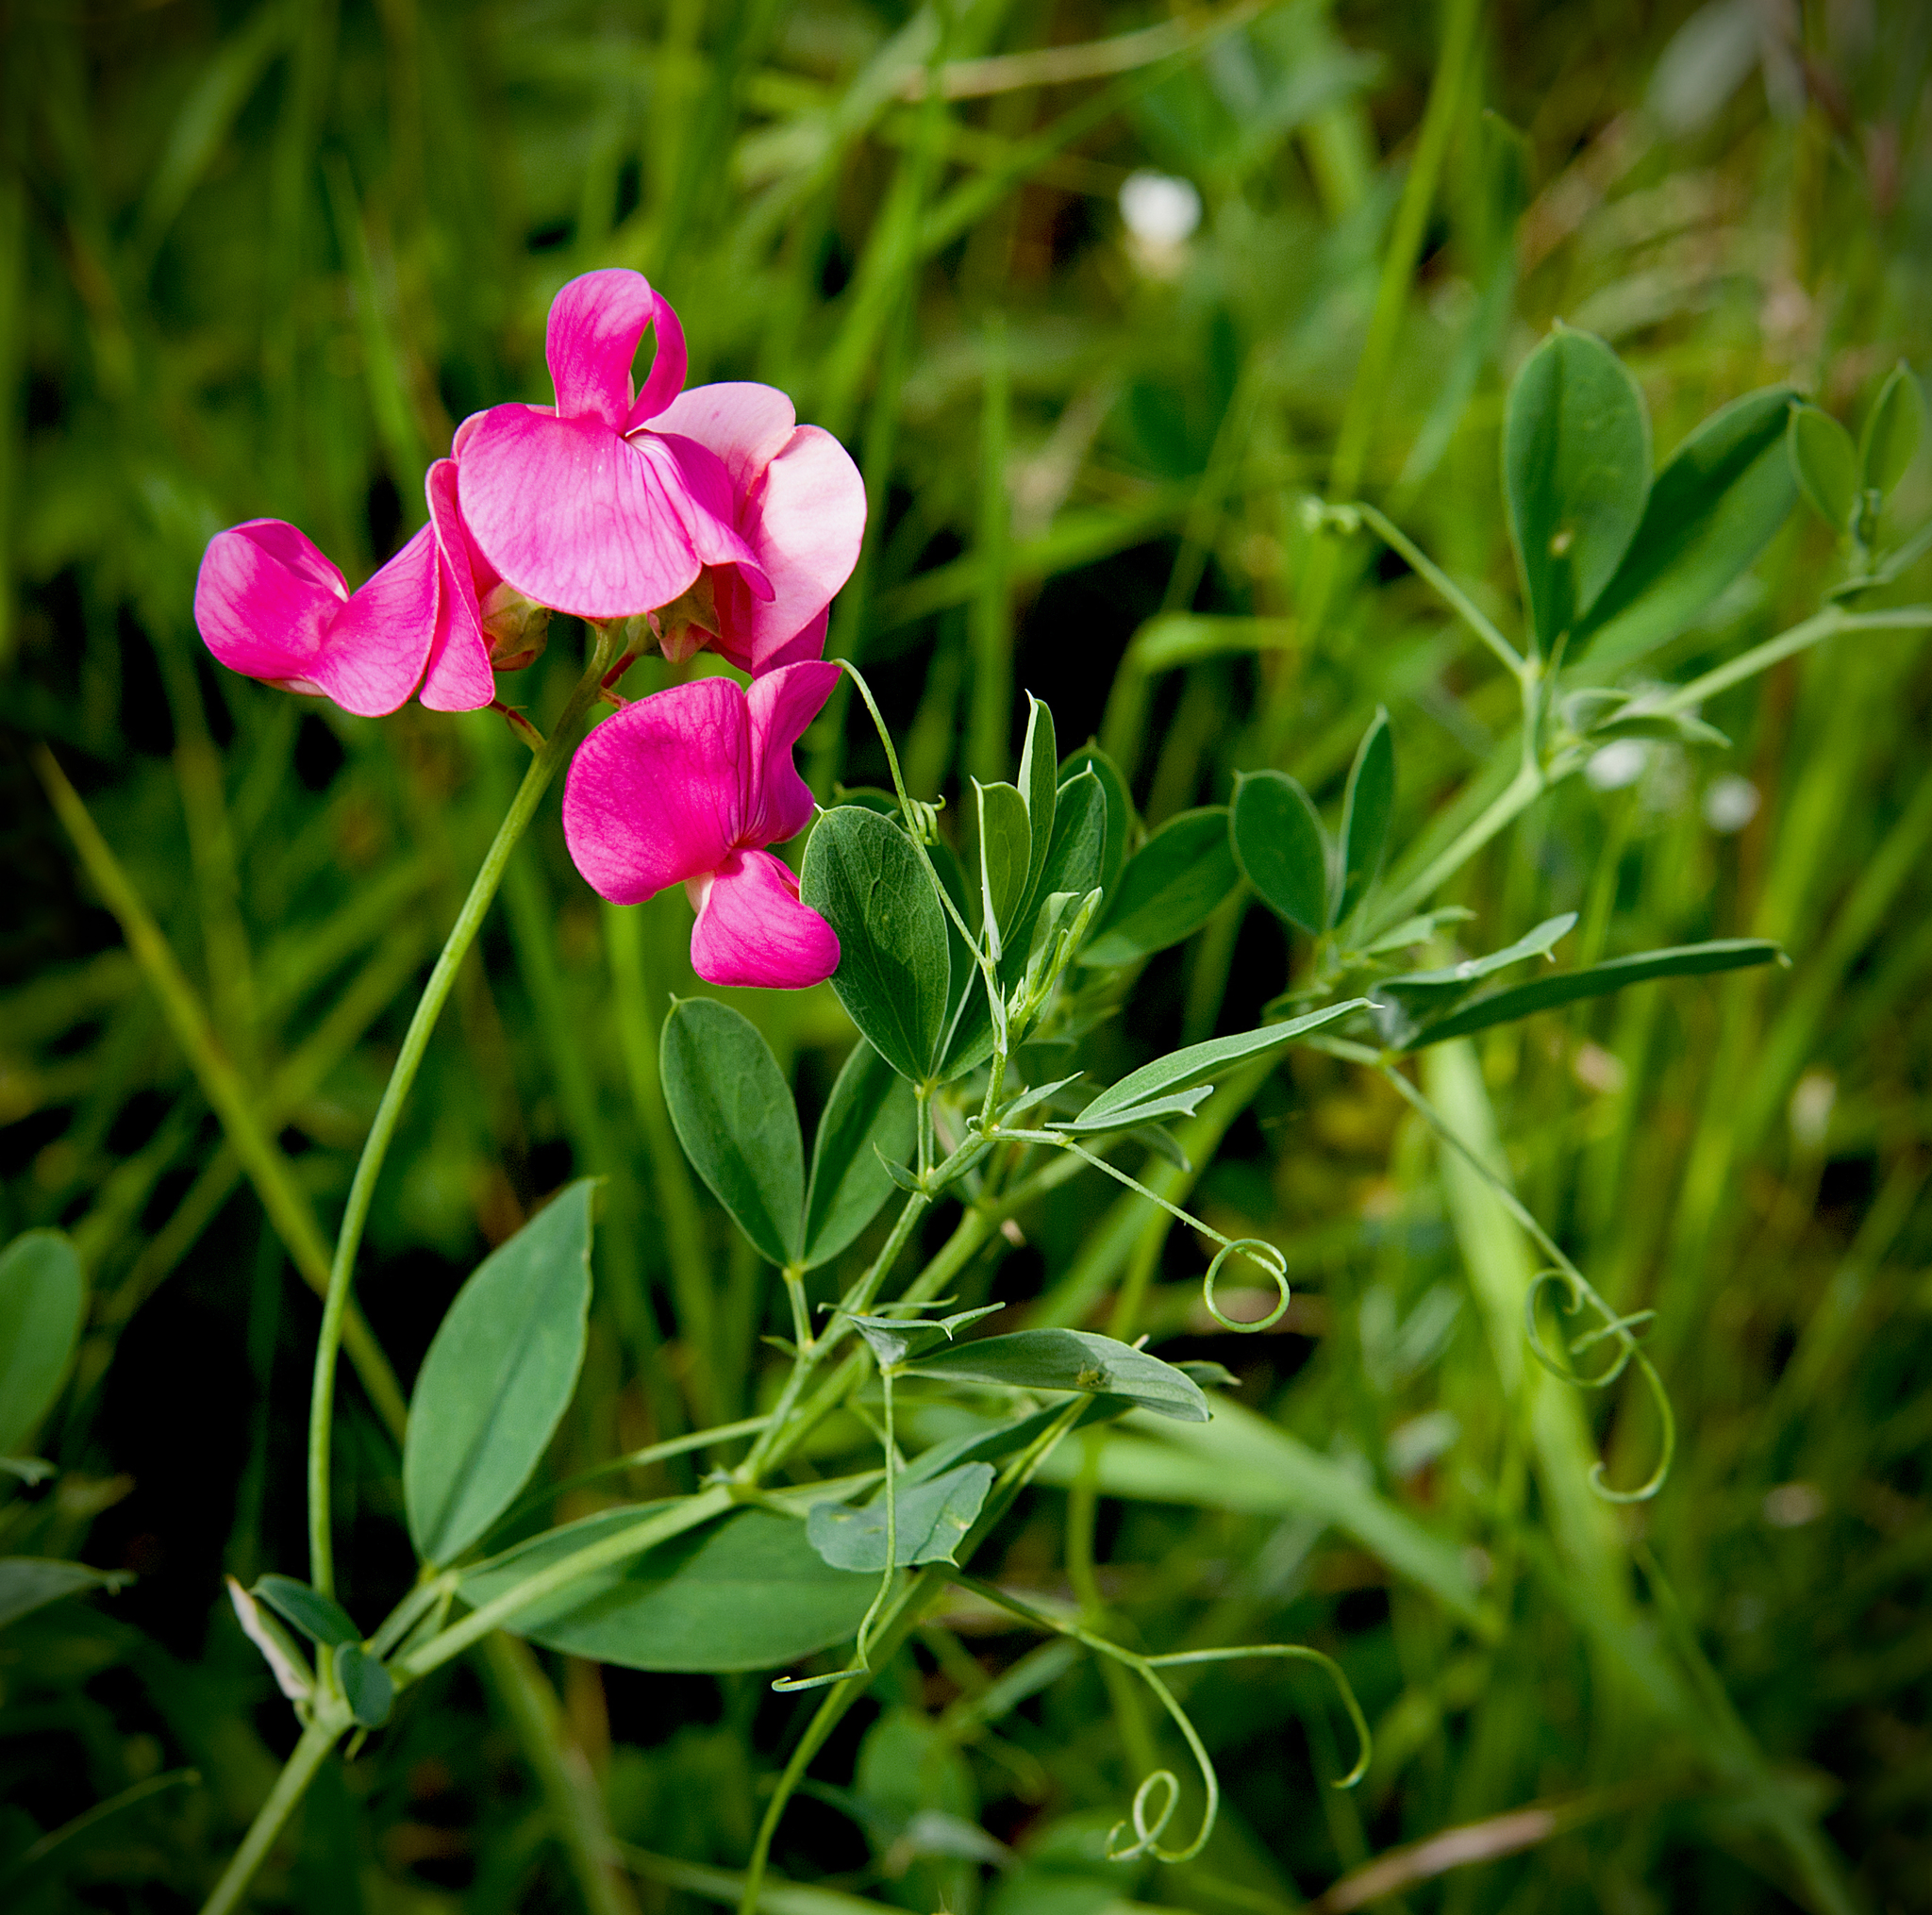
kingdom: Plantae
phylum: Tracheophyta
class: Magnoliopsida
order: Fabales
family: Fabaceae
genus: Lathyrus
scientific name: Lathyrus tuberosus
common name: Tuberous pea
